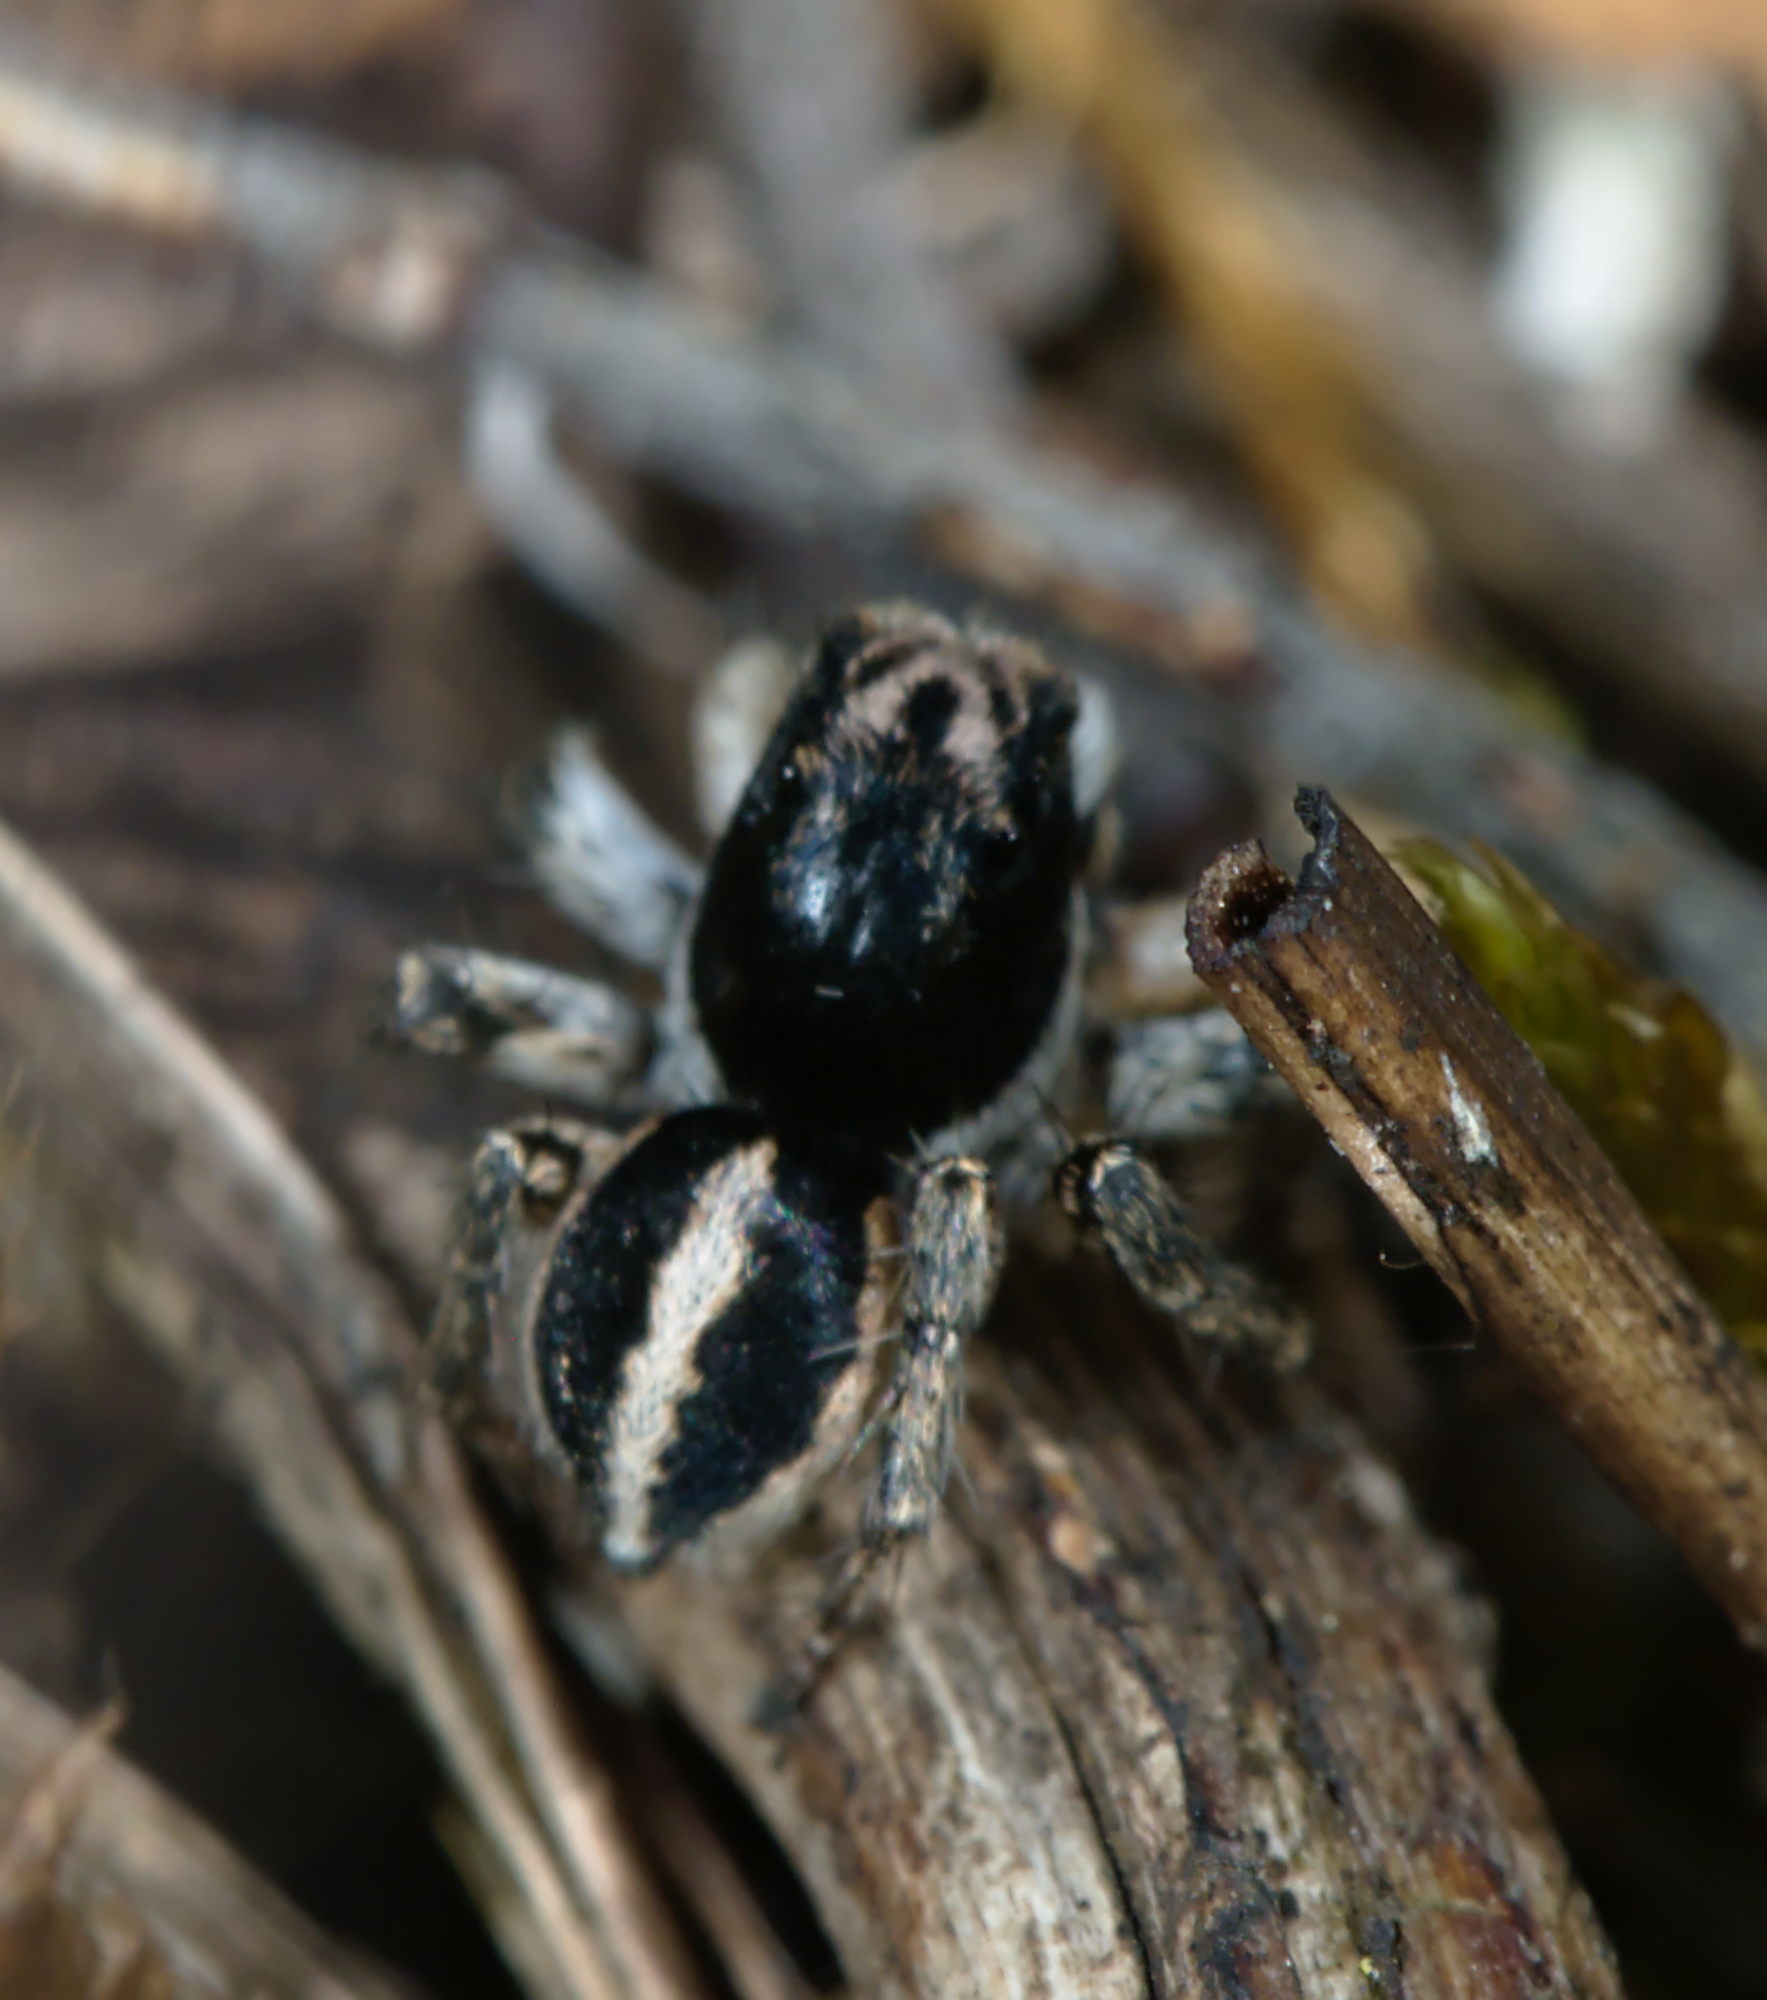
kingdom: Animalia
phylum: Arthropoda
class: Arachnida
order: Araneae
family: Salticidae
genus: Aelurillus
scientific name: Aelurillus v-insignitus
